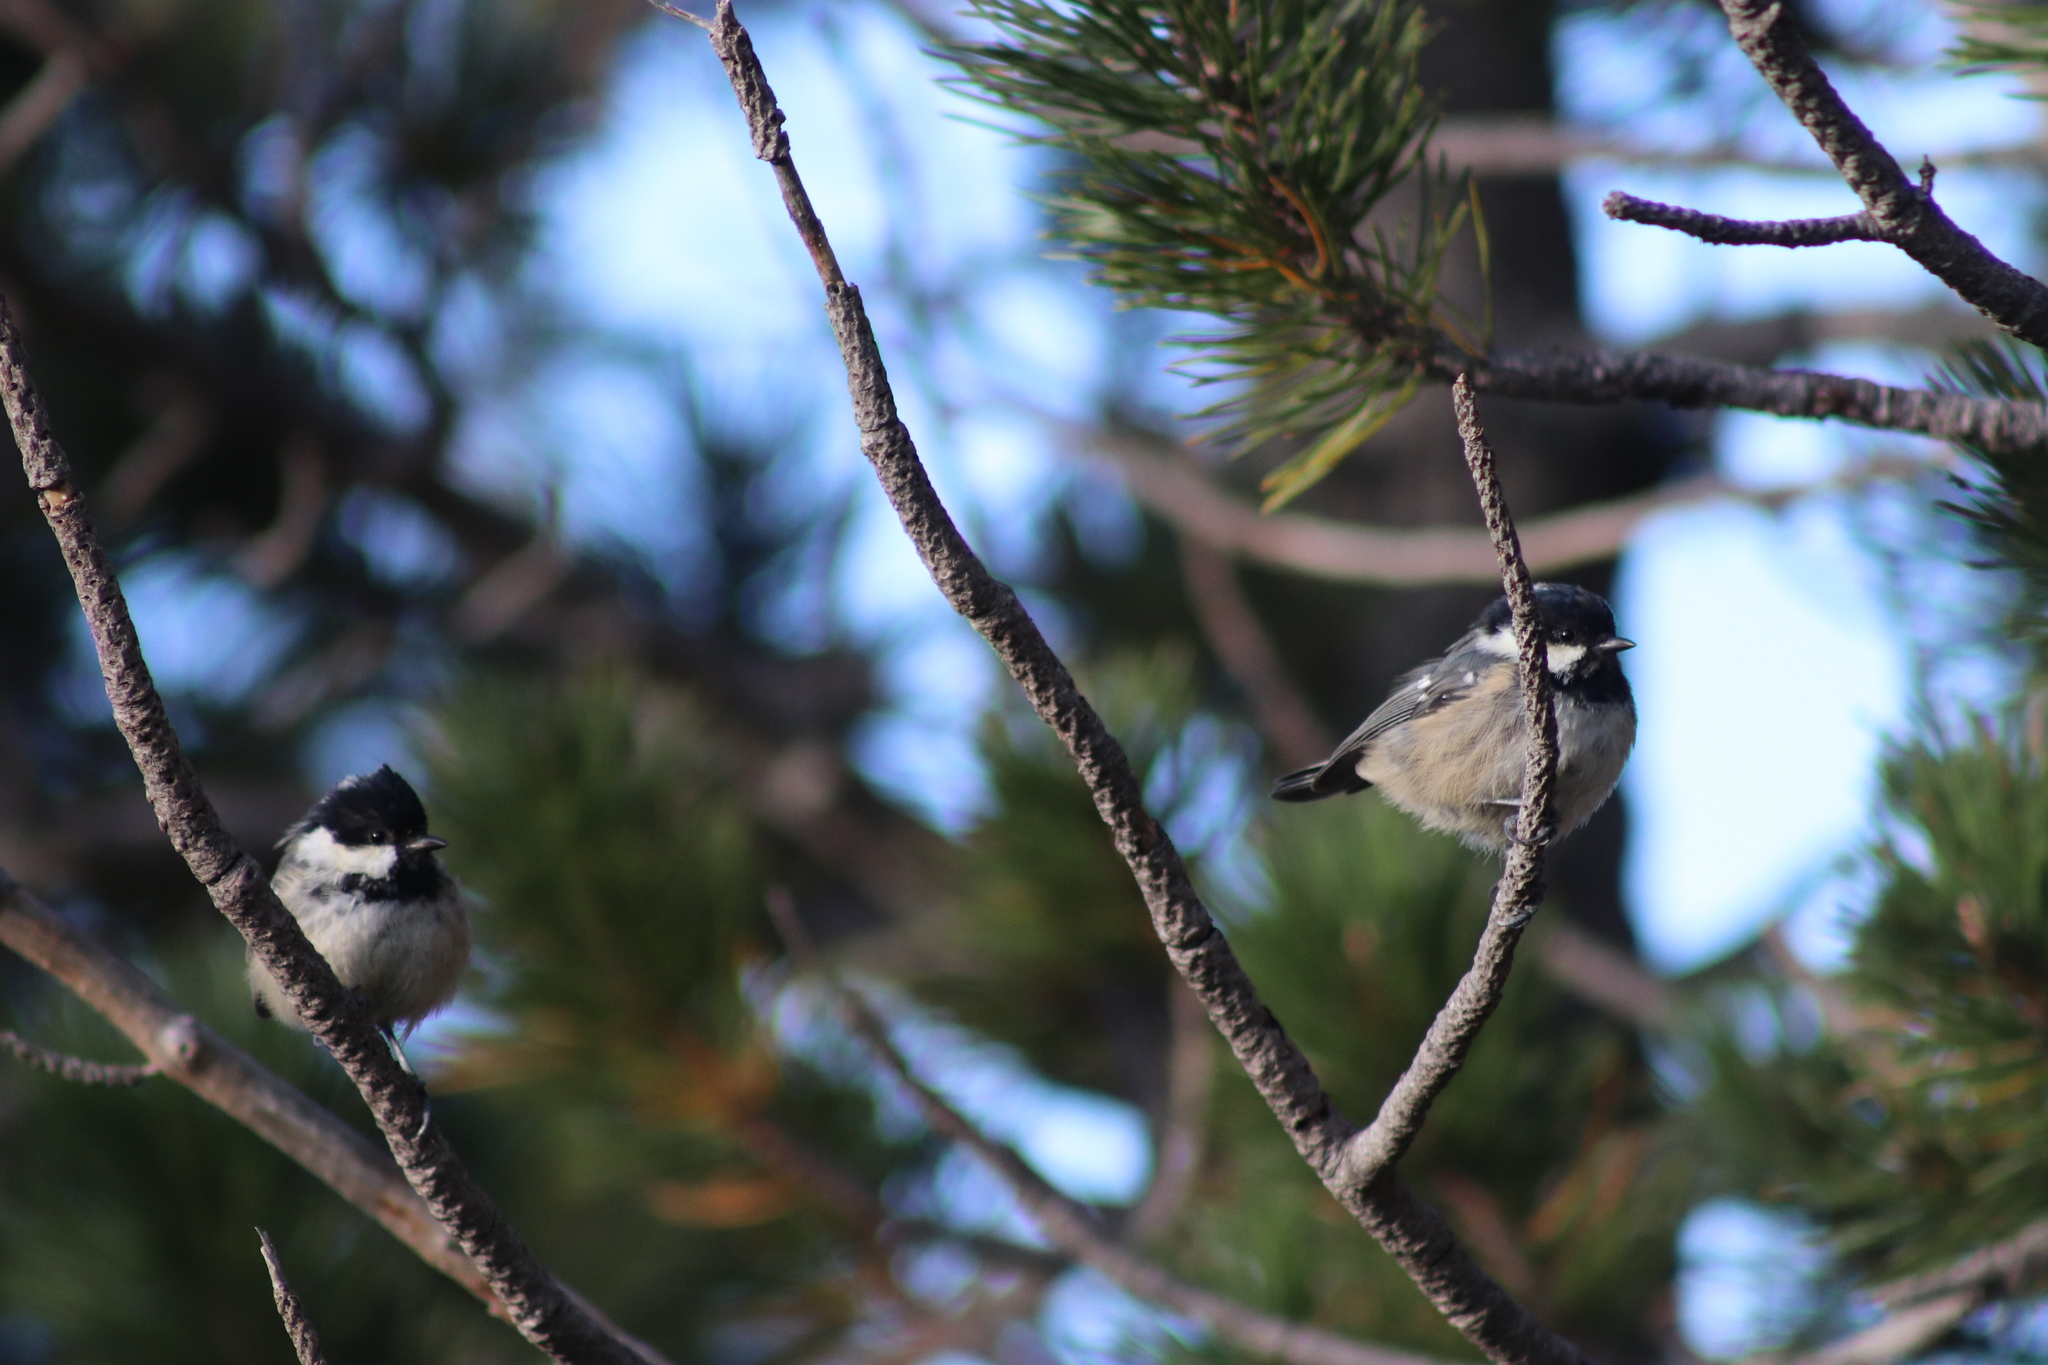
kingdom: Animalia
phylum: Chordata
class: Aves
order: Passeriformes
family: Paridae
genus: Periparus
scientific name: Periparus ater
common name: Coal tit
